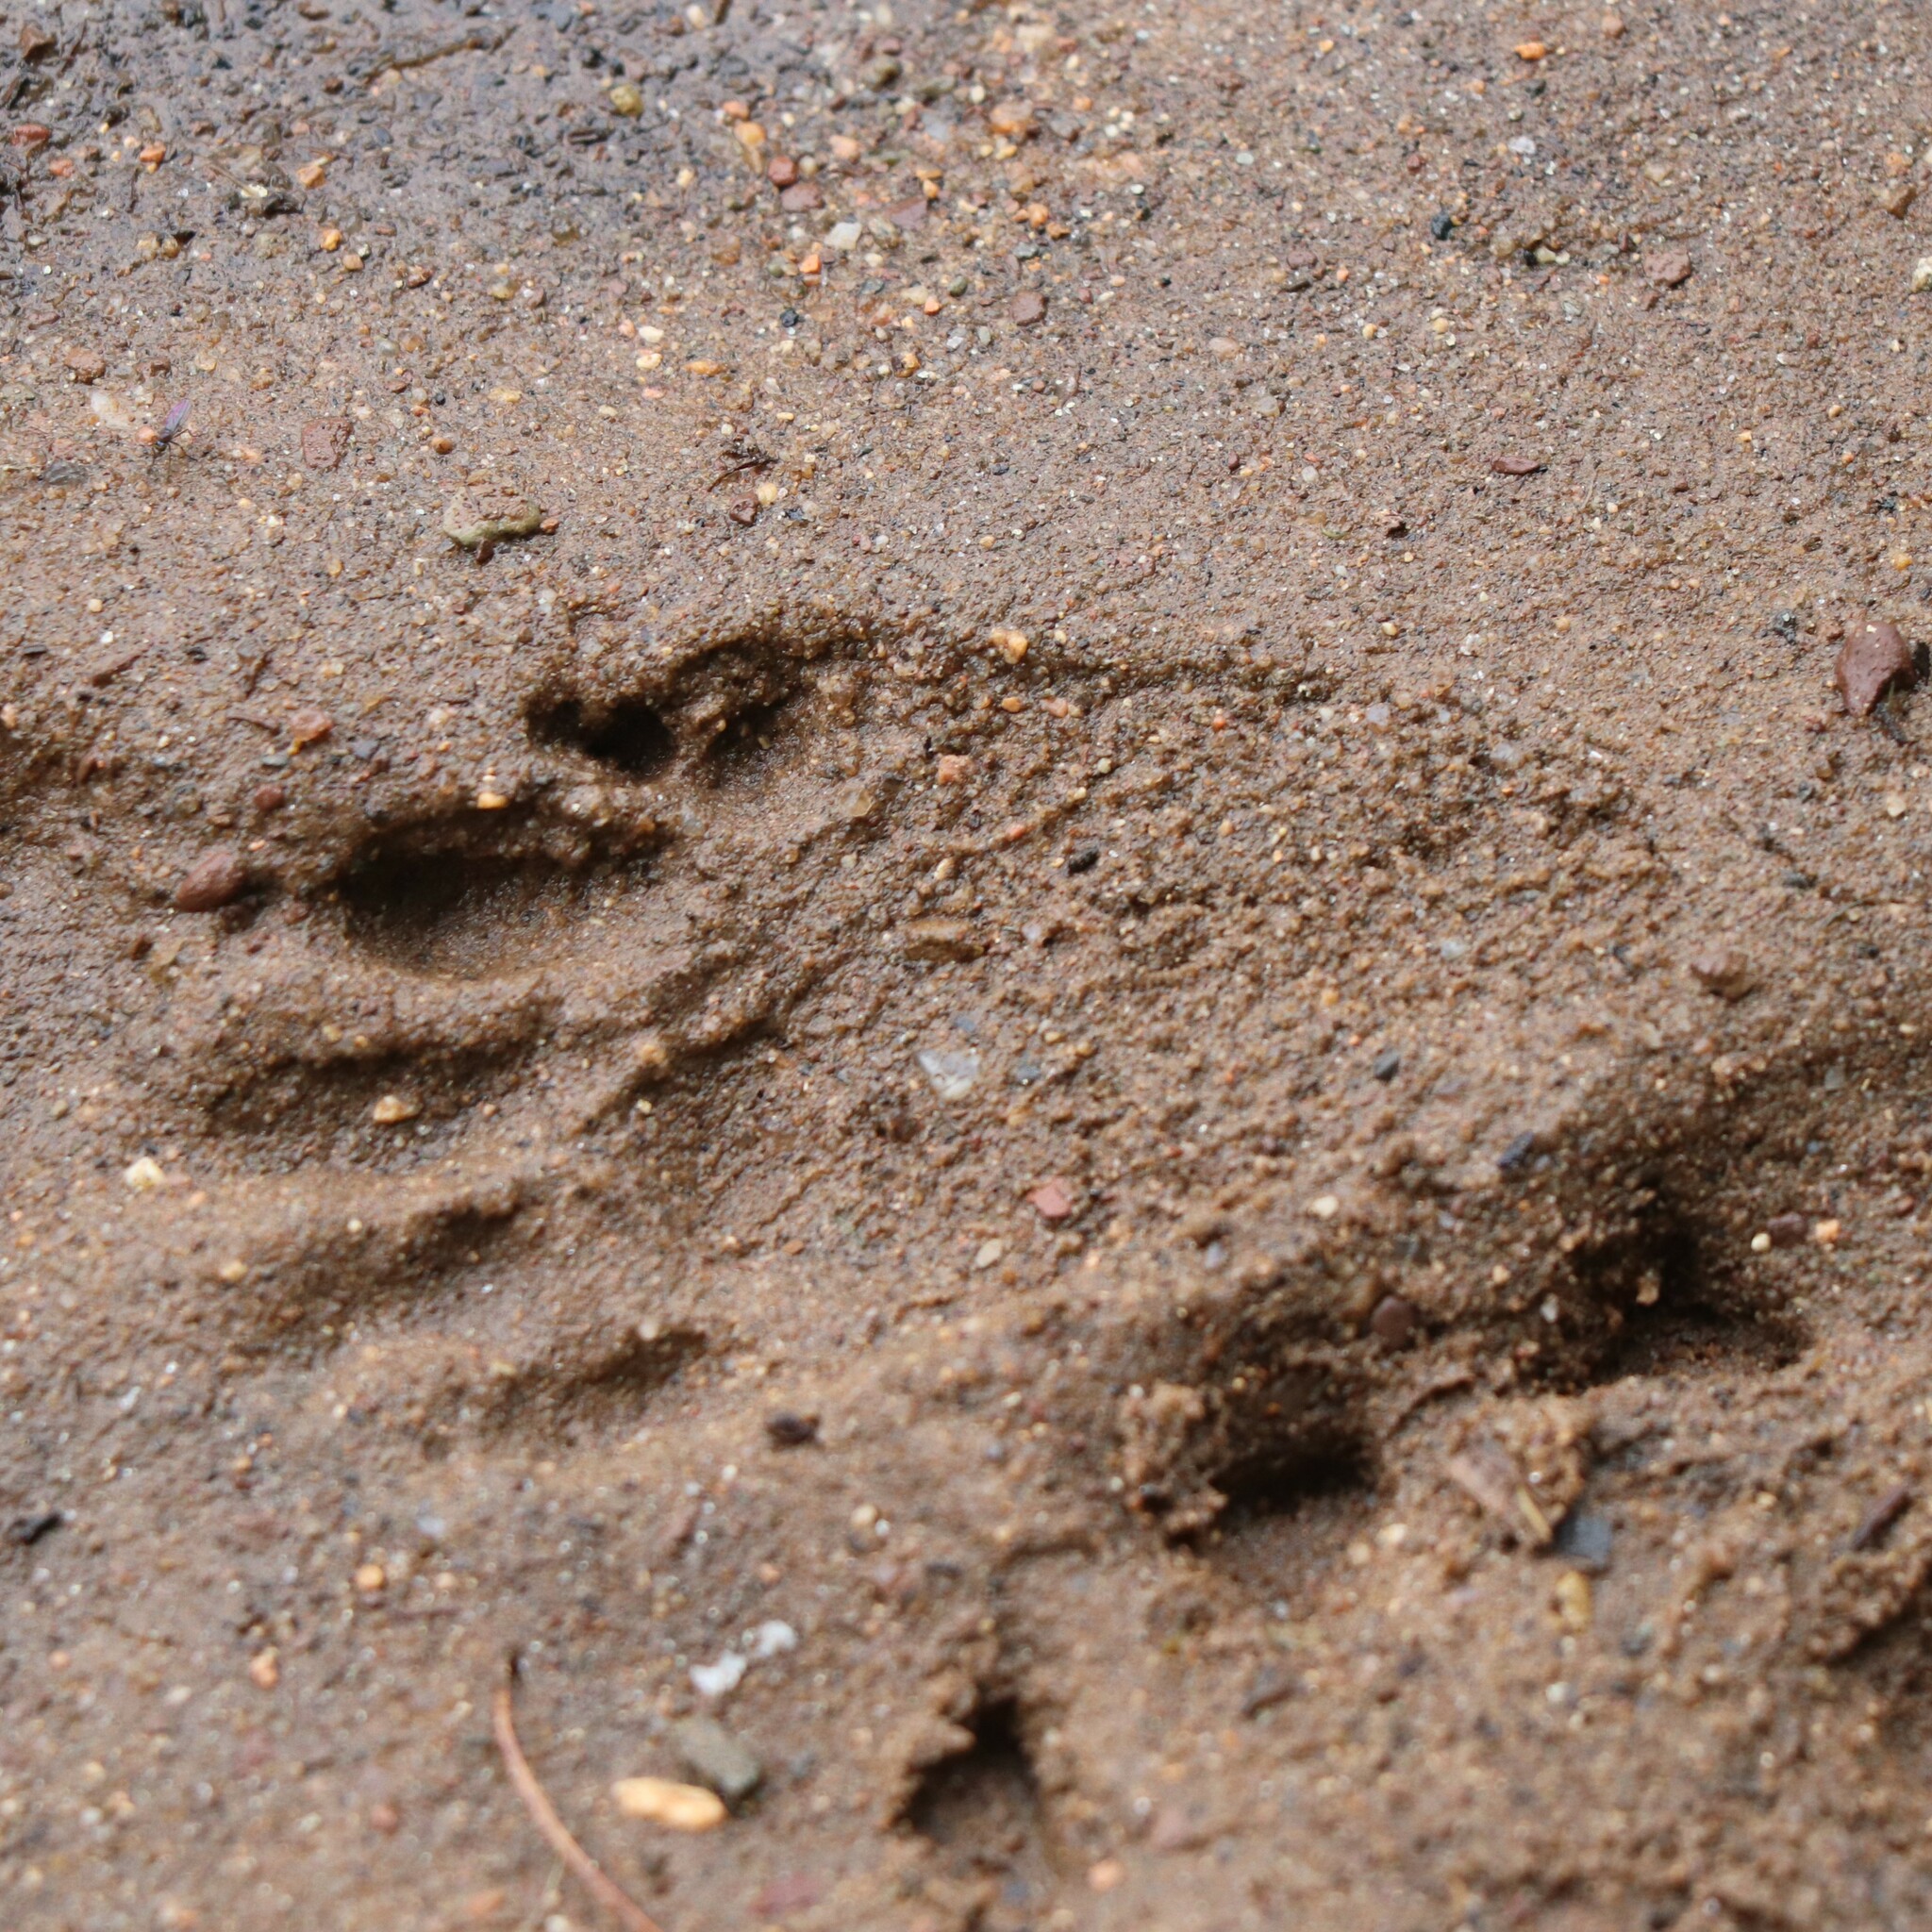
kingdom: Animalia
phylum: Chordata
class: Mammalia
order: Carnivora
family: Procyonidae
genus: Procyon
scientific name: Procyon lotor
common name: Raccoon
